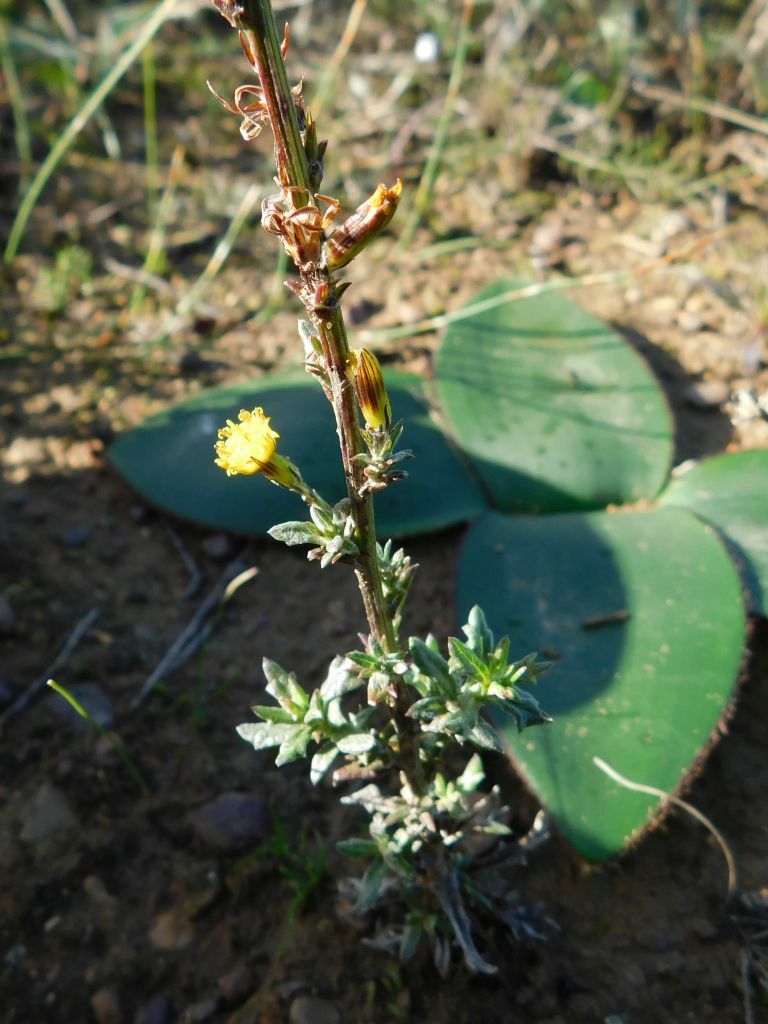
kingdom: Plantae
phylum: Tracheophyta
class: Magnoliopsida
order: Asterales
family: Asteraceae
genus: Senecio
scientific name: Senecio pubigerus
